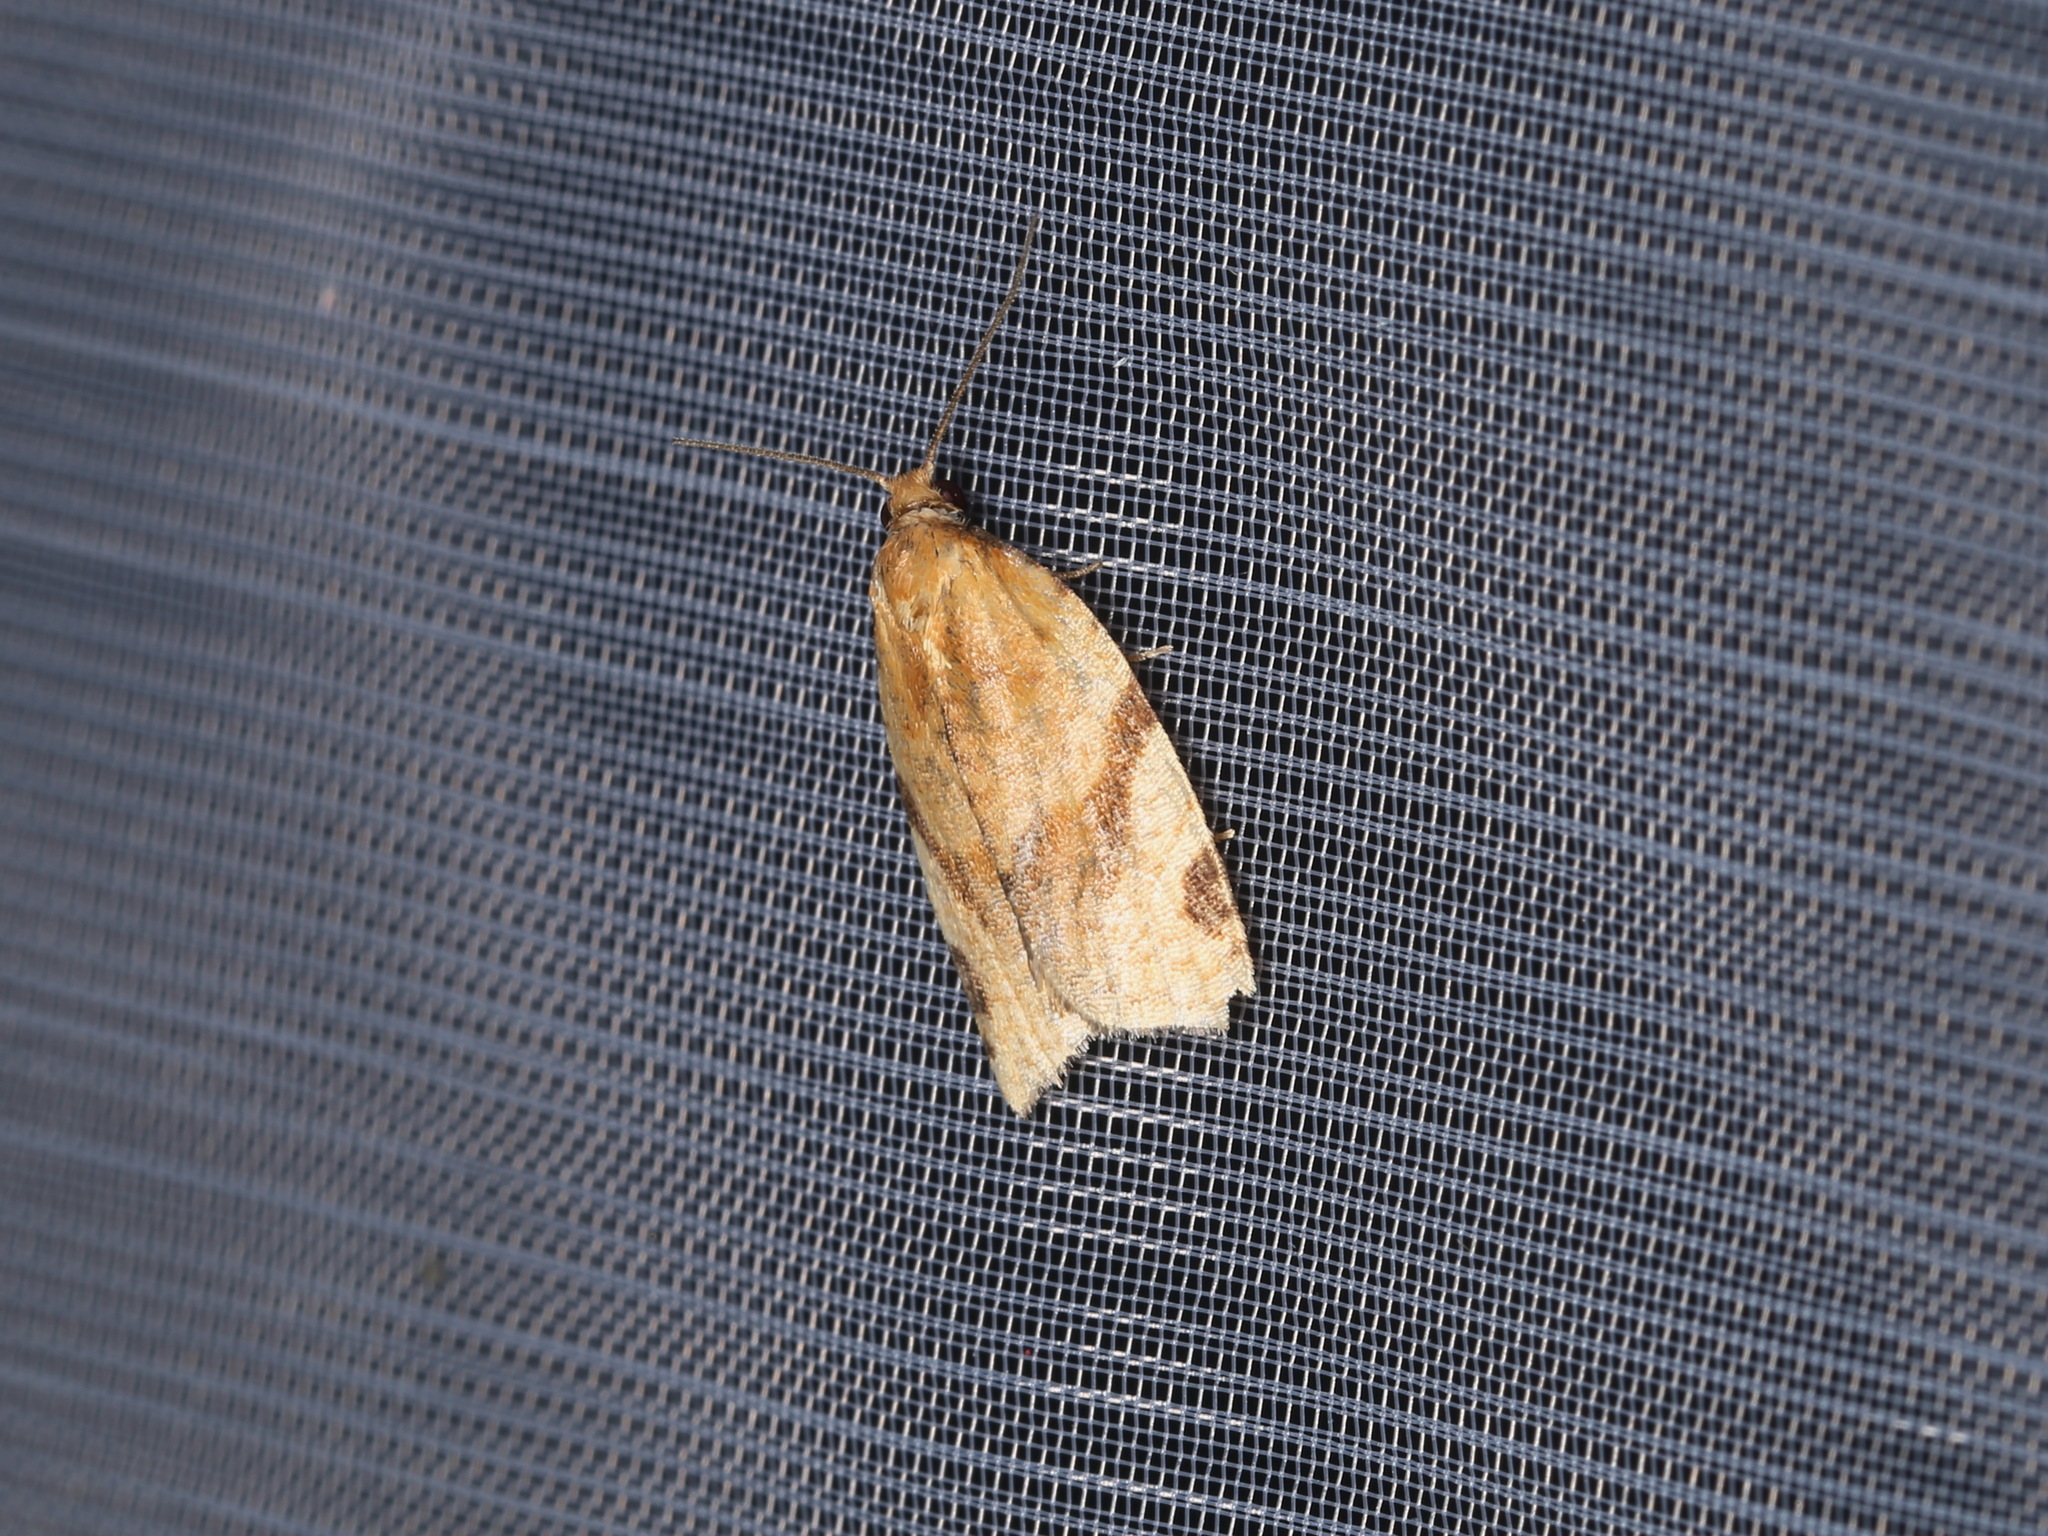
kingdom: Animalia
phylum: Arthropoda
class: Insecta
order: Lepidoptera
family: Tortricidae
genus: Paramesia
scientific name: Paramesia gnomana
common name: Small straw twist
